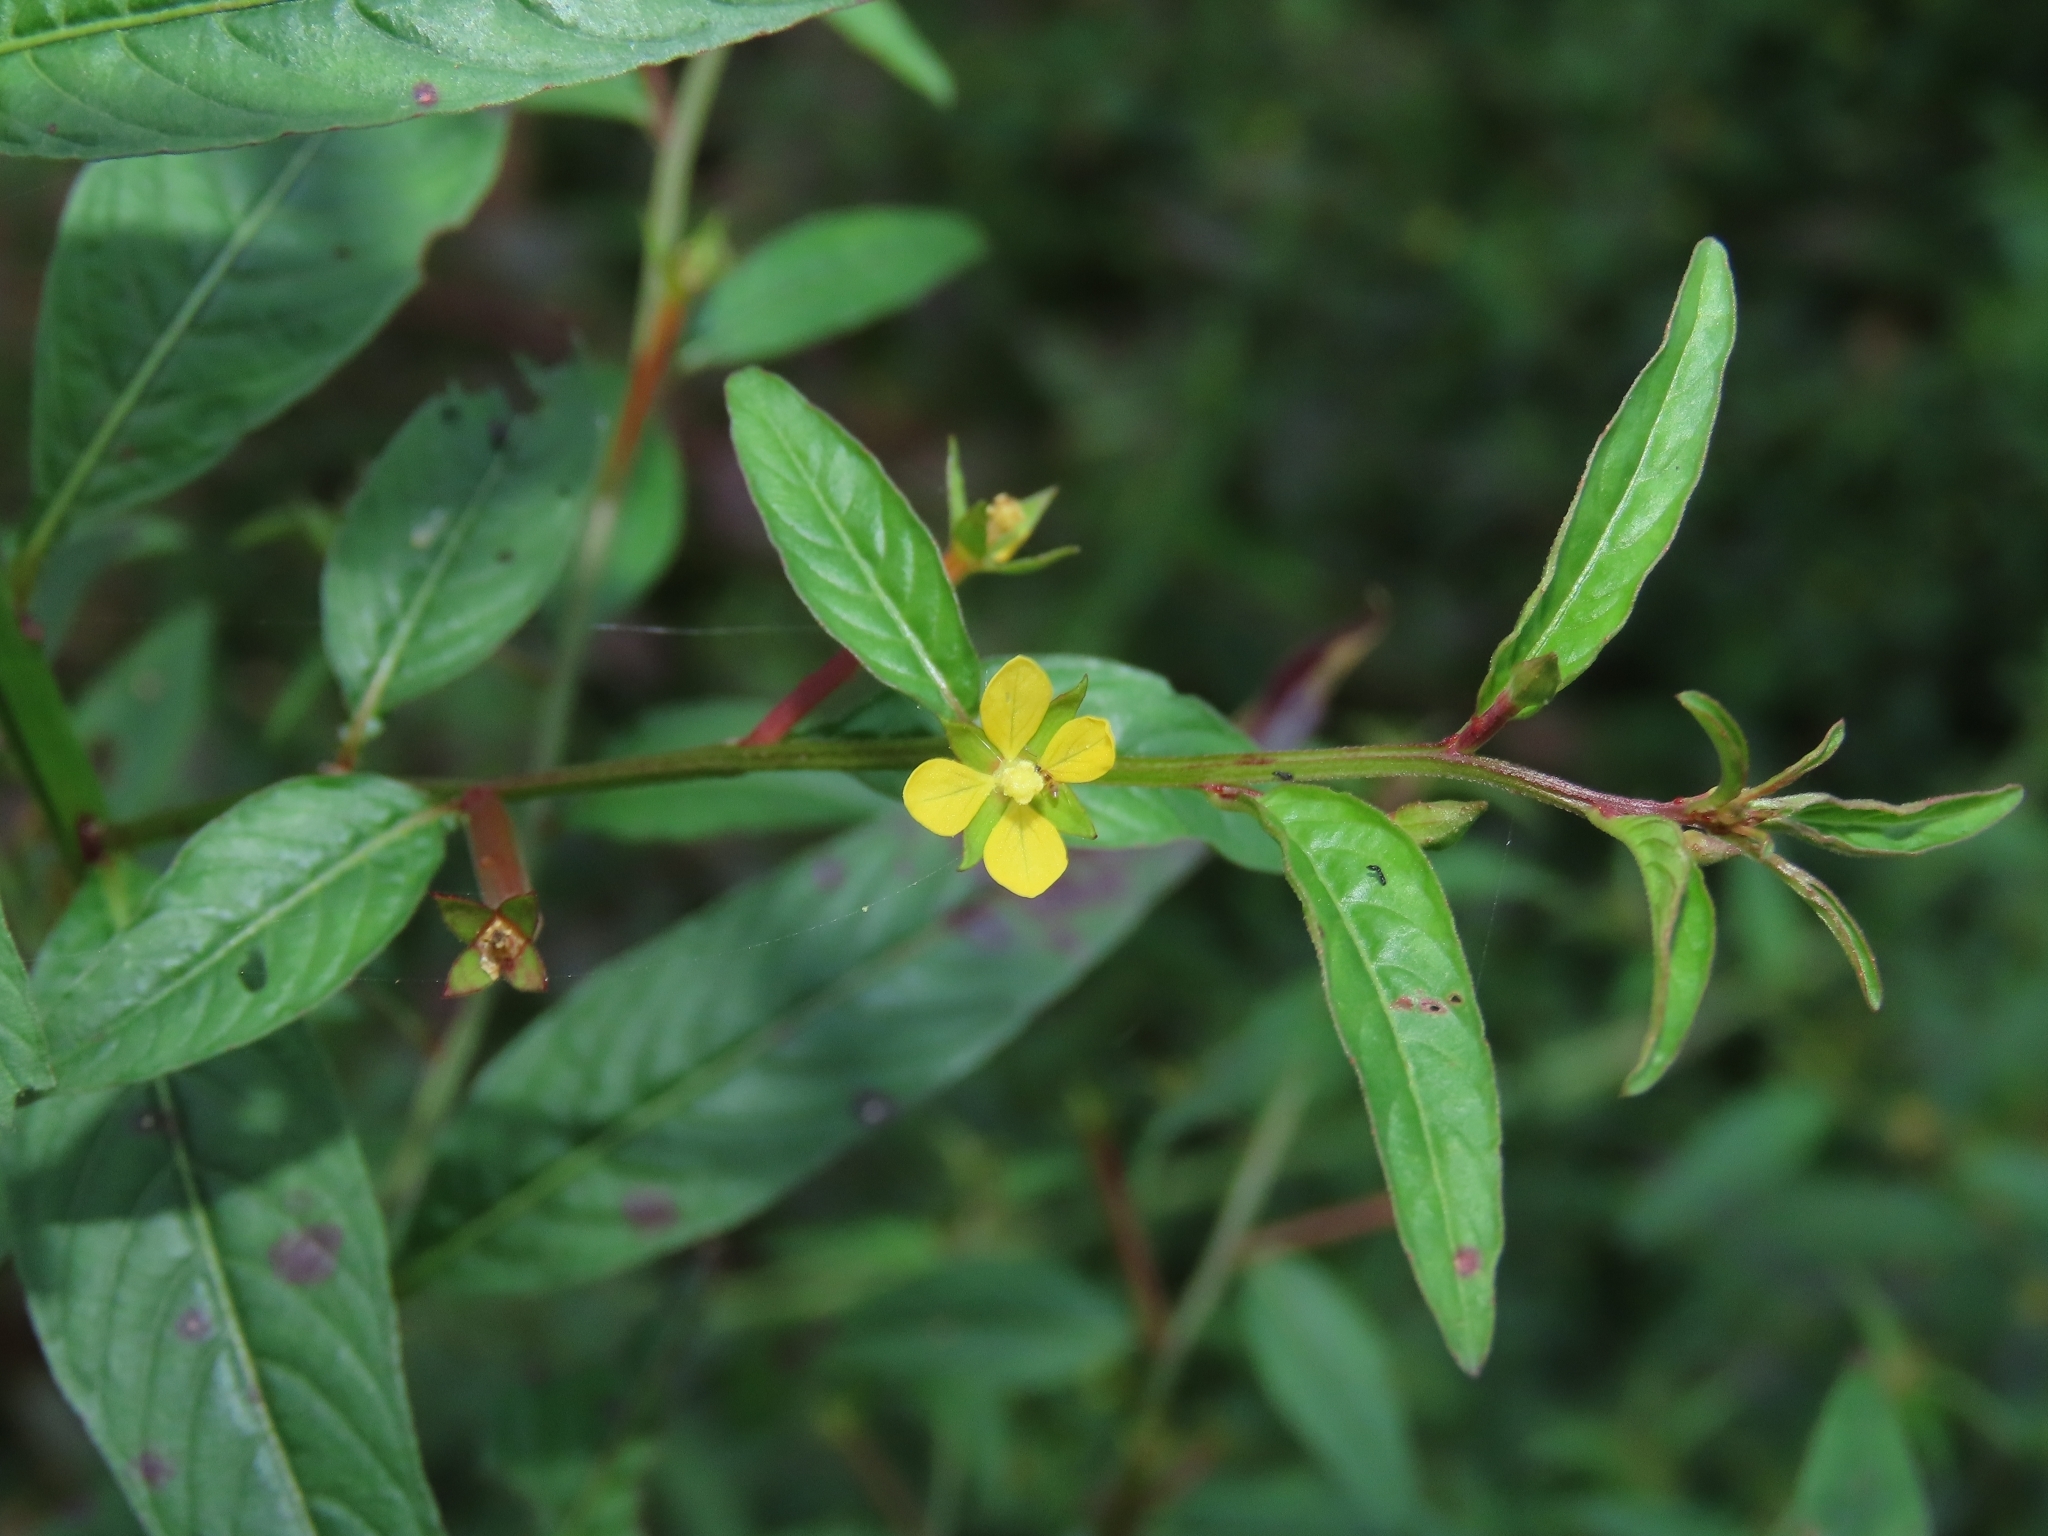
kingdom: Plantae
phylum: Tracheophyta
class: Magnoliopsida
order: Myrtales
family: Onagraceae
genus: Ludwigia
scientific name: Ludwigia hyssopifolia
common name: Linear leaf water primrose
